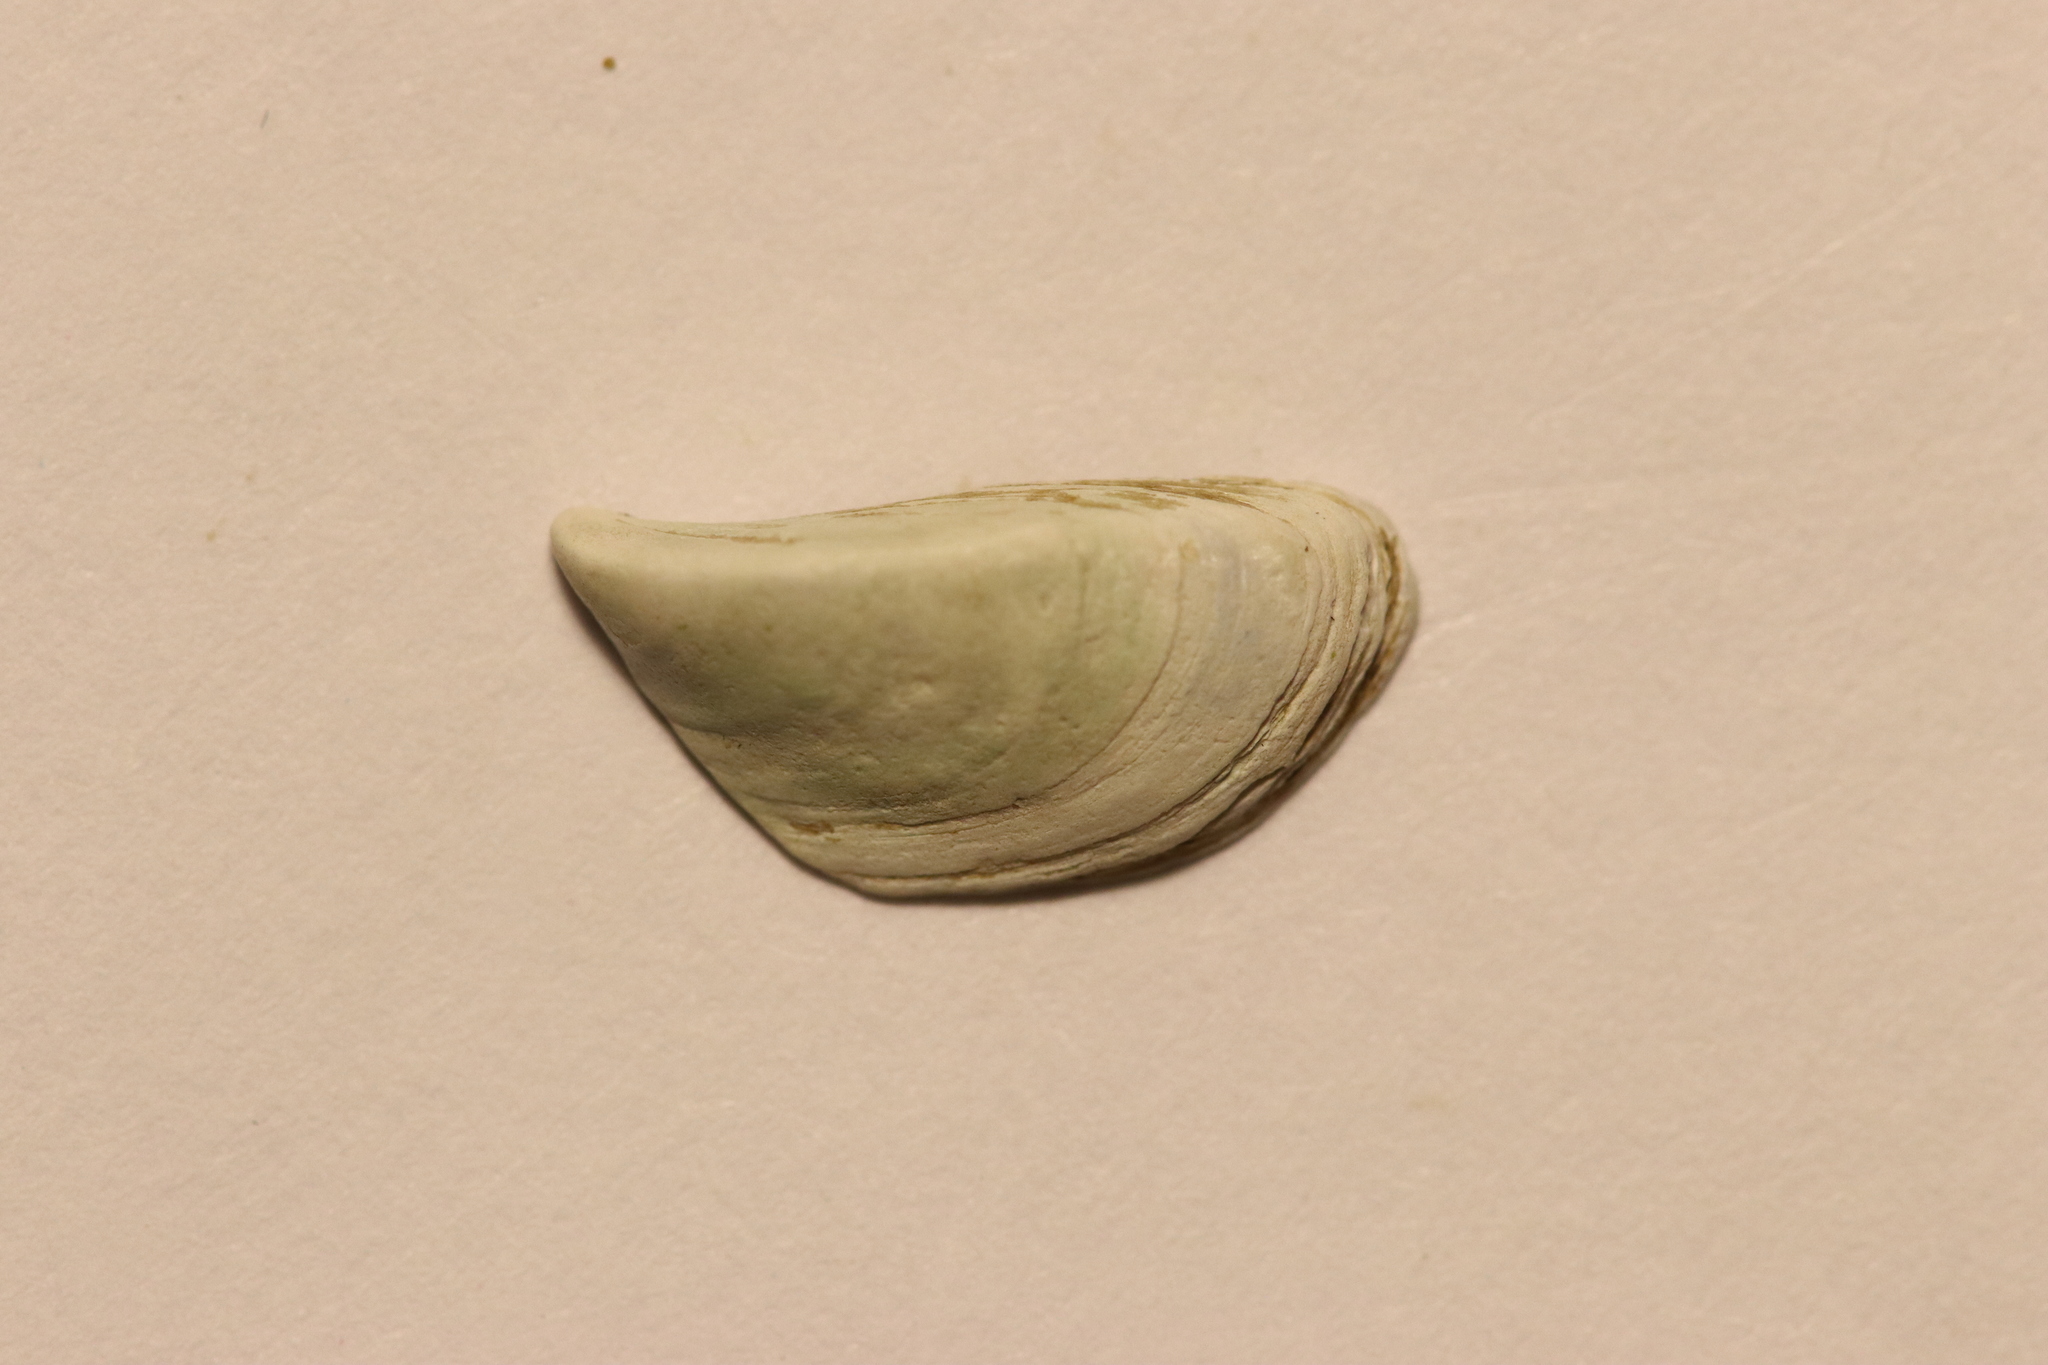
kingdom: Animalia
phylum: Mollusca
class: Bivalvia
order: Myida
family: Dreissenidae
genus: Dreissena
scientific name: Dreissena polymorpha
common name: Zebra mussel
